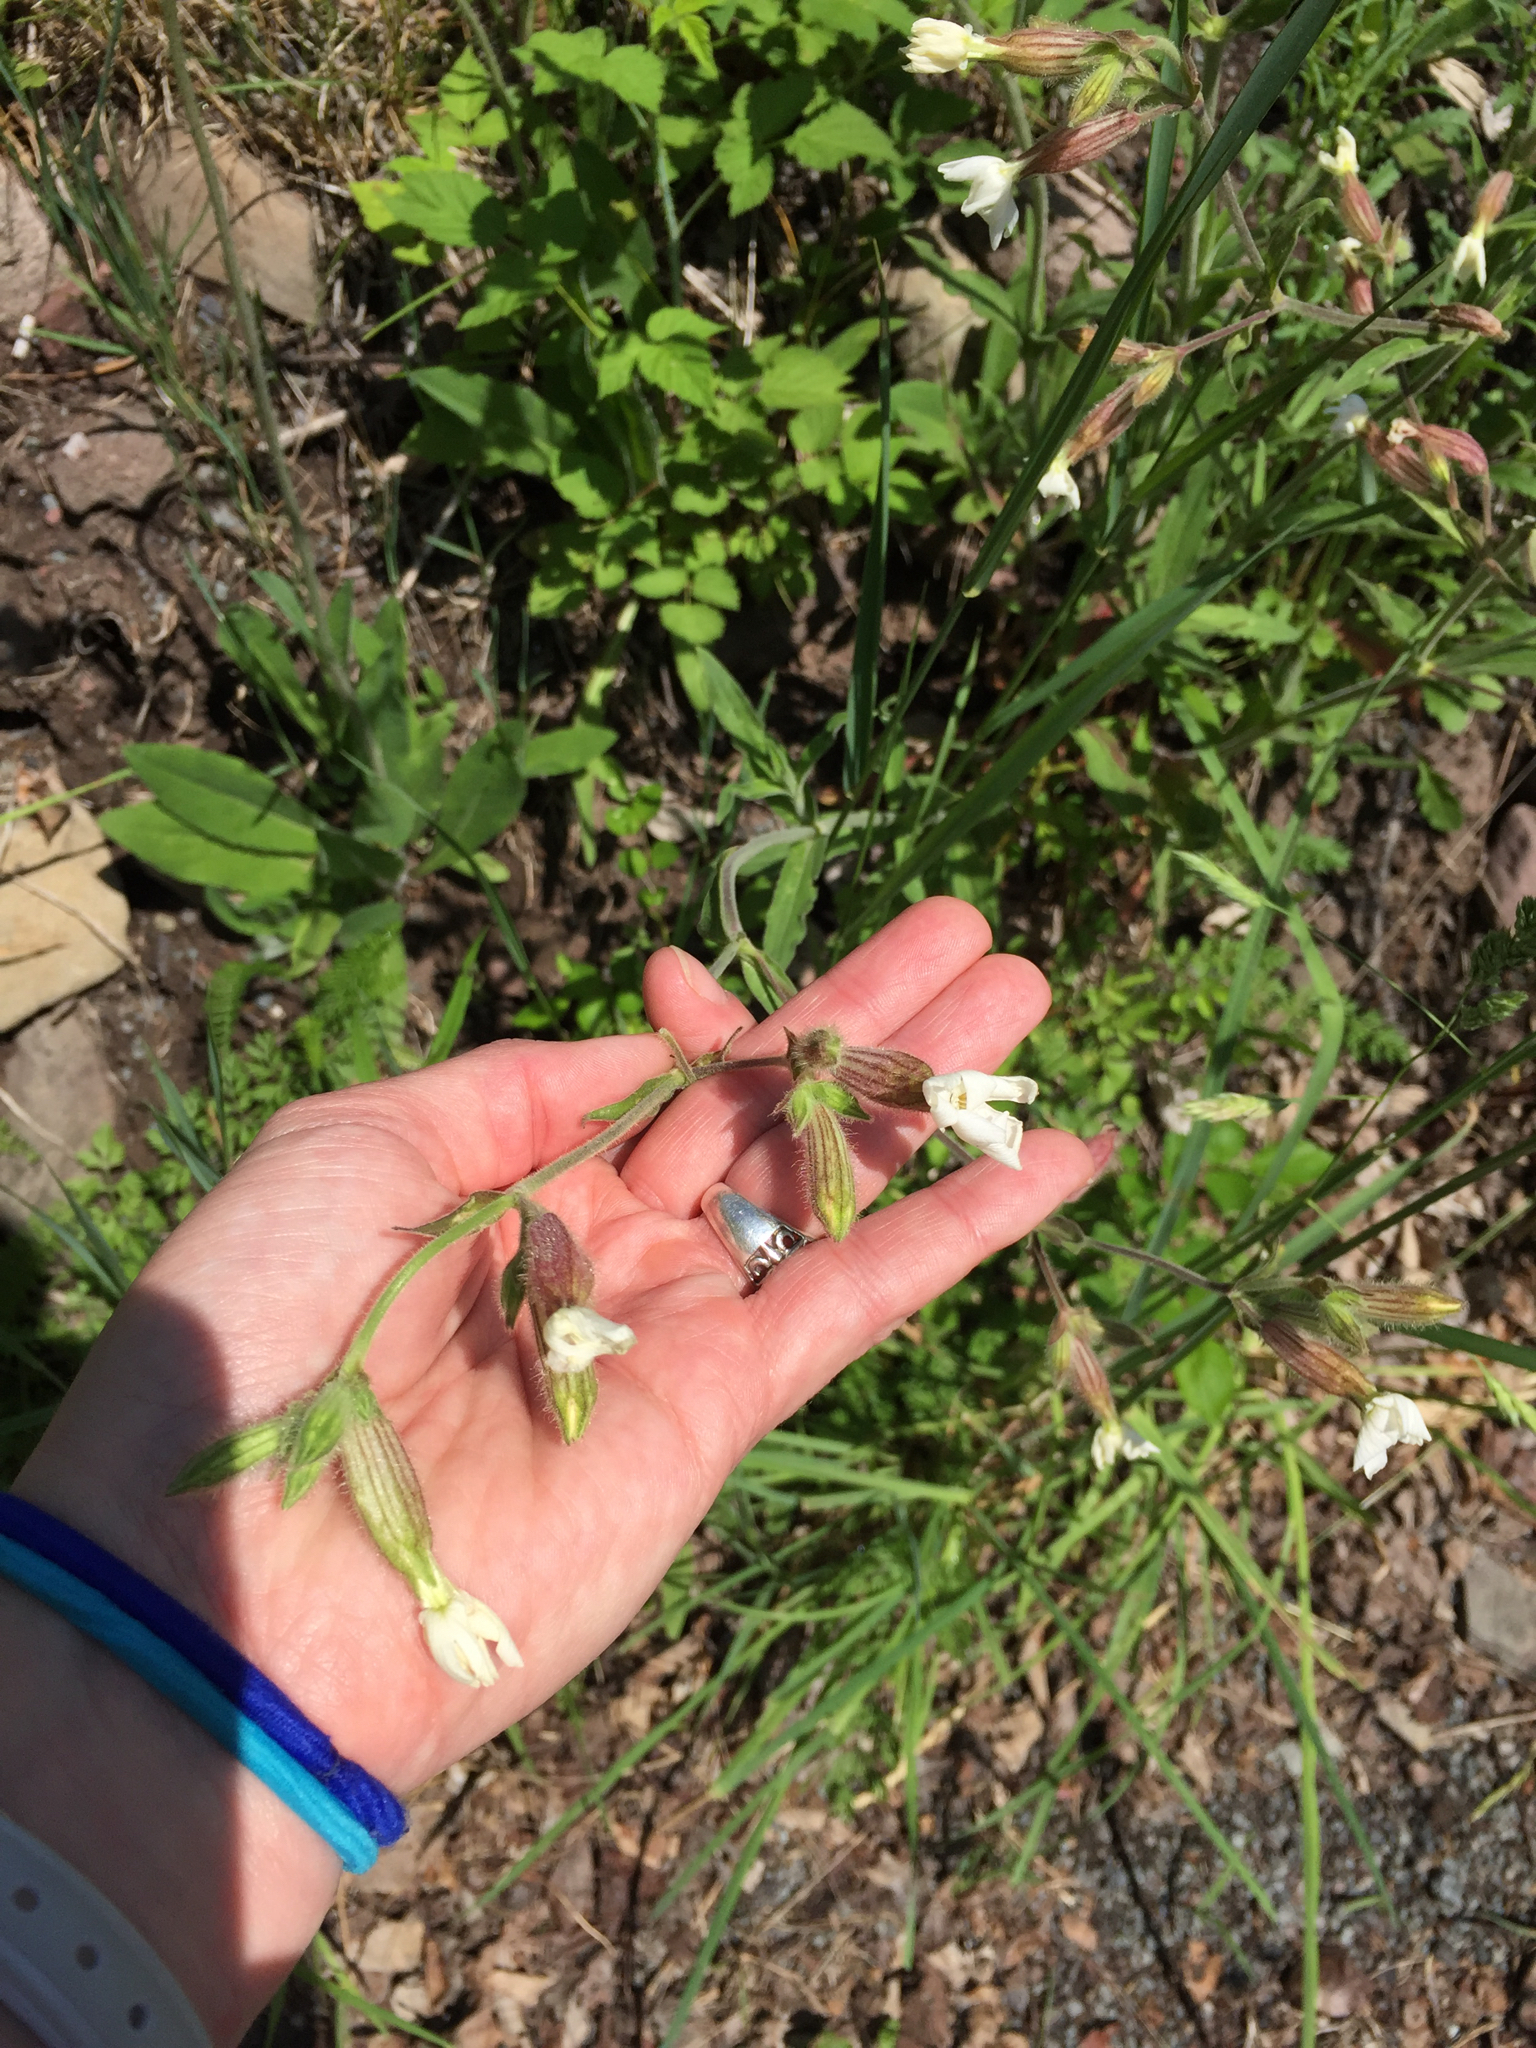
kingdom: Plantae
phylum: Tracheophyta
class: Magnoliopsida
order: Caryophyllales
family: Caryophyllaceae
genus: Silene
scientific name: Silene latifolia
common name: White campion
